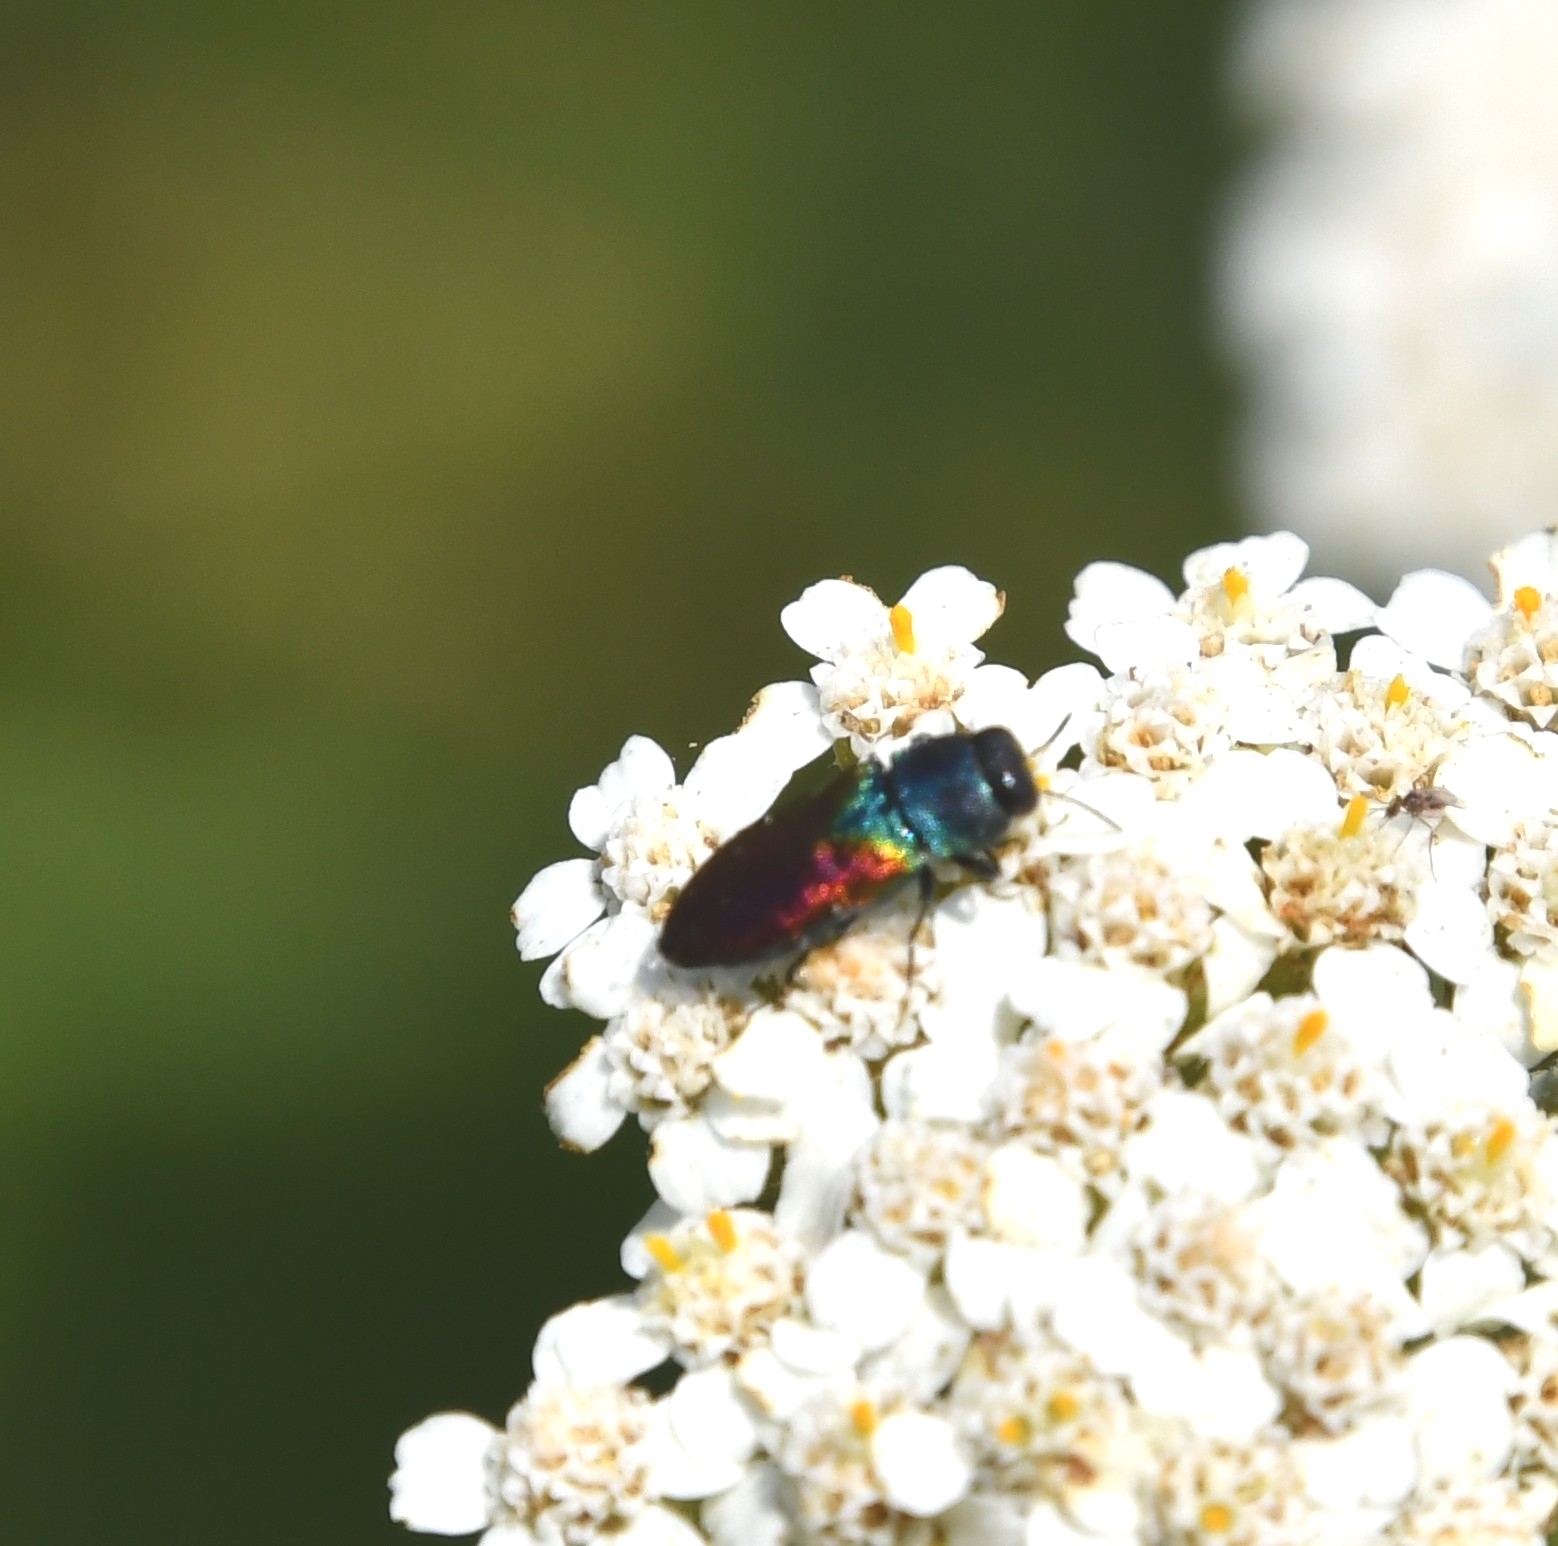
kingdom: Animalia
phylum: Arthropoda
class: Insecta
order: Coleoptera
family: Buprestidae
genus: Anthaxia
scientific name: Anthaxia olympica
